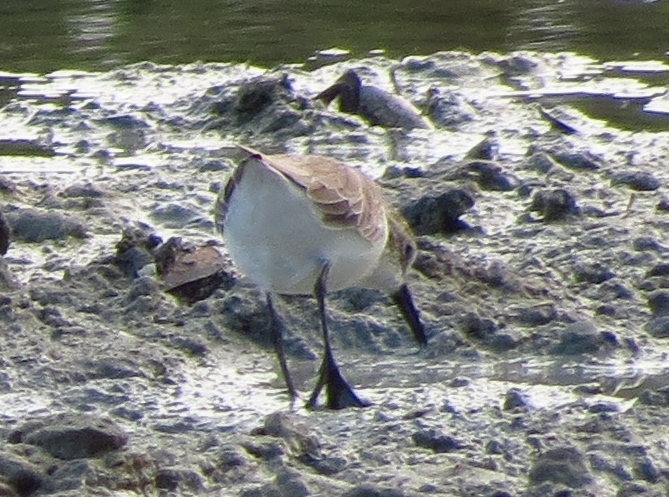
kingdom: Animalia
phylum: Chordata
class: Aves
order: Charadriiformes
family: Scolopacidae
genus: Calidris
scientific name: Calidris pusilla
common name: Semipalmated sandpiper
